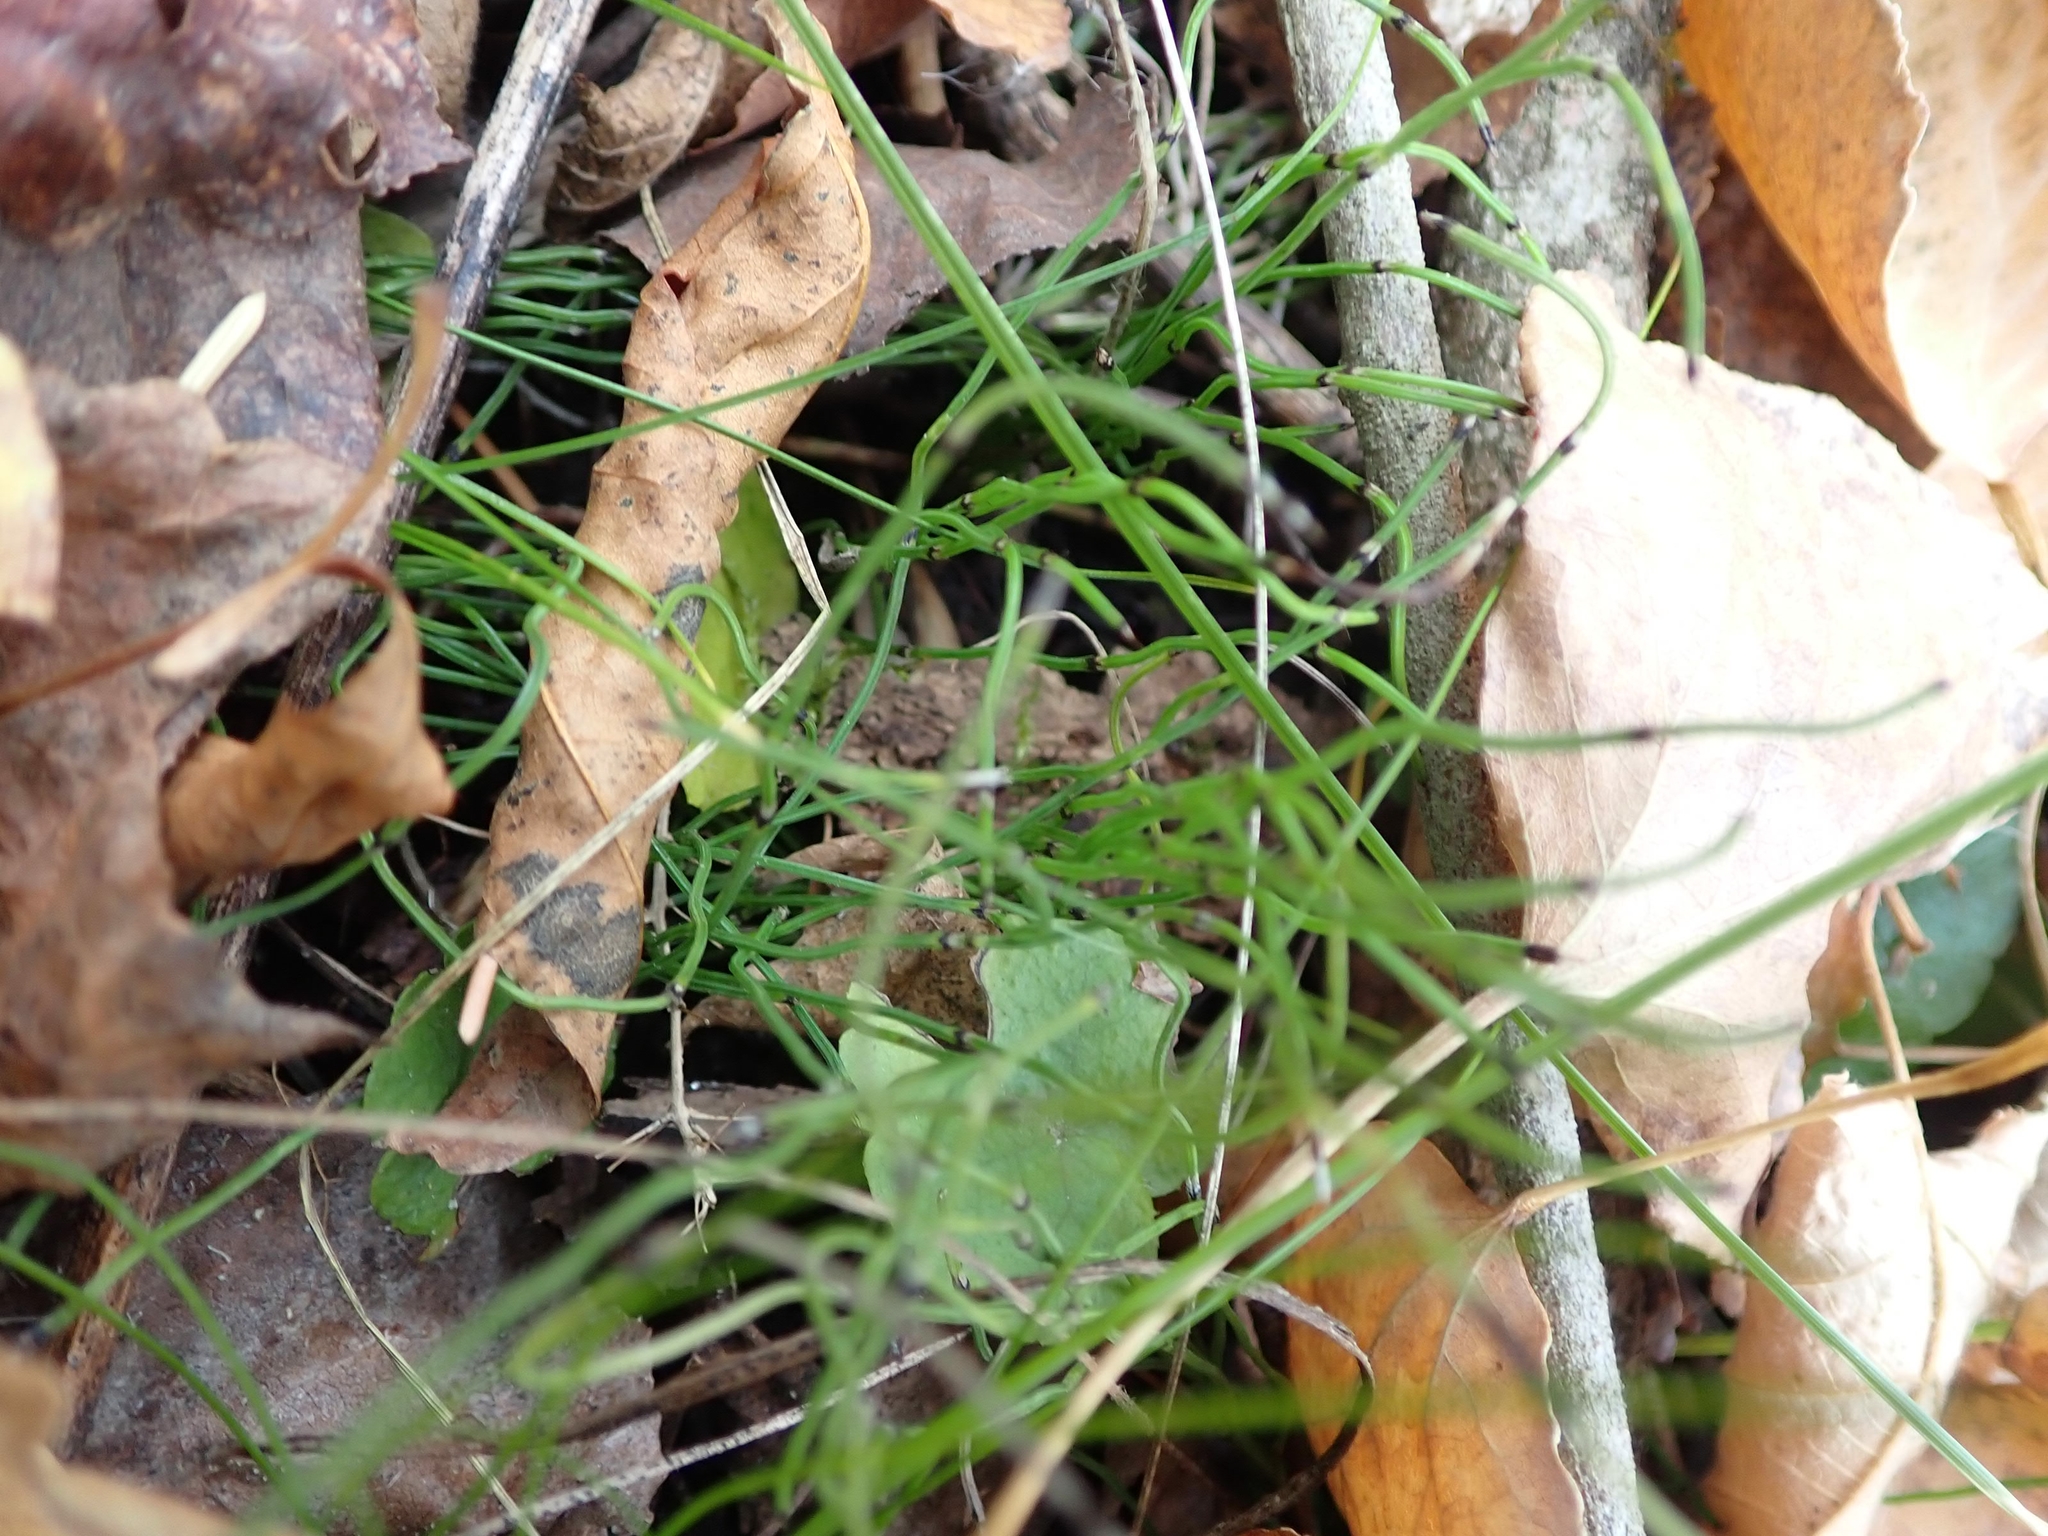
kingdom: Plantae
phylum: Tracheophyta
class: Polypodiopsida
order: Equisetales
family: Equisetaceae
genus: Equisetum
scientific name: Equisetum scirpoides
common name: Delicate horsetail
